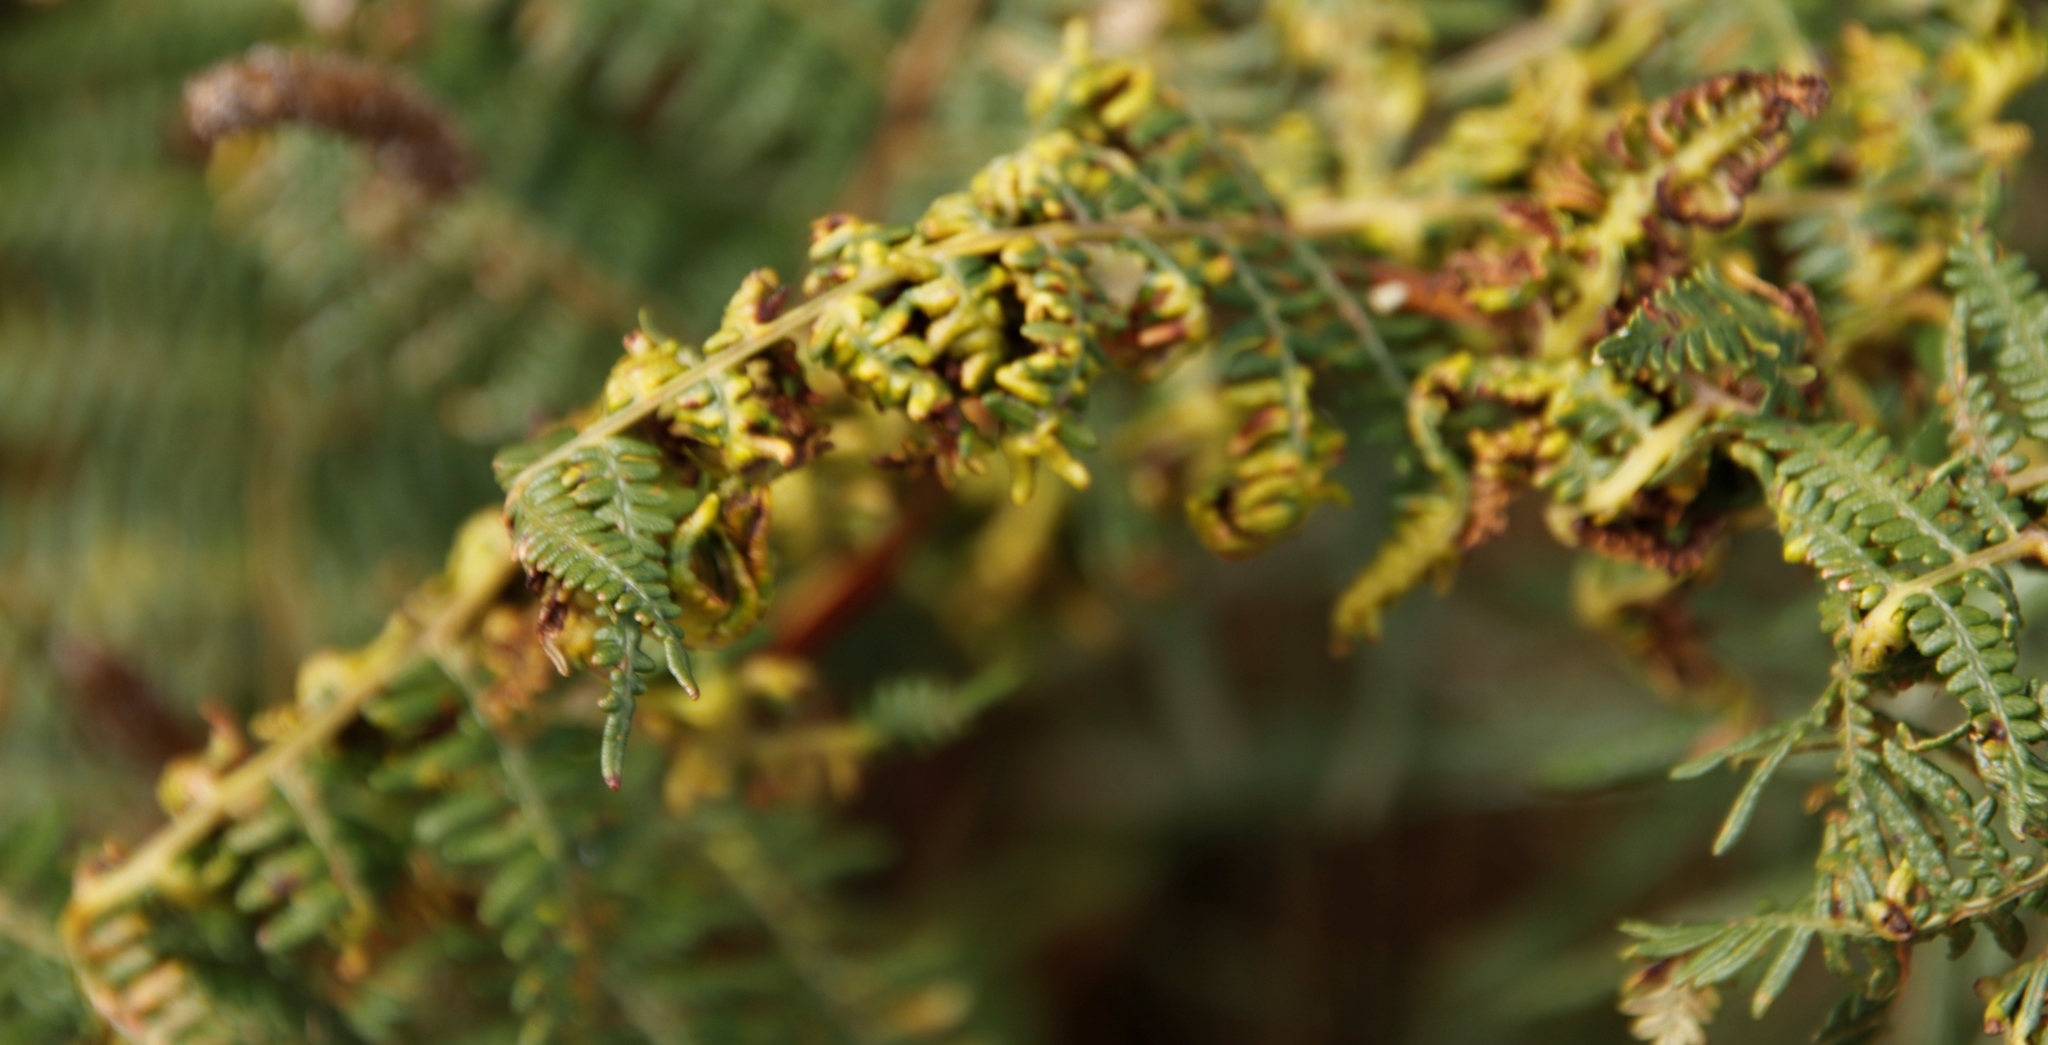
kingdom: Animalia
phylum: Arthropoda
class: Arachnida
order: Trombidiformes
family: Eriophyidae
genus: Eriophyes
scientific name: Eriophyes
